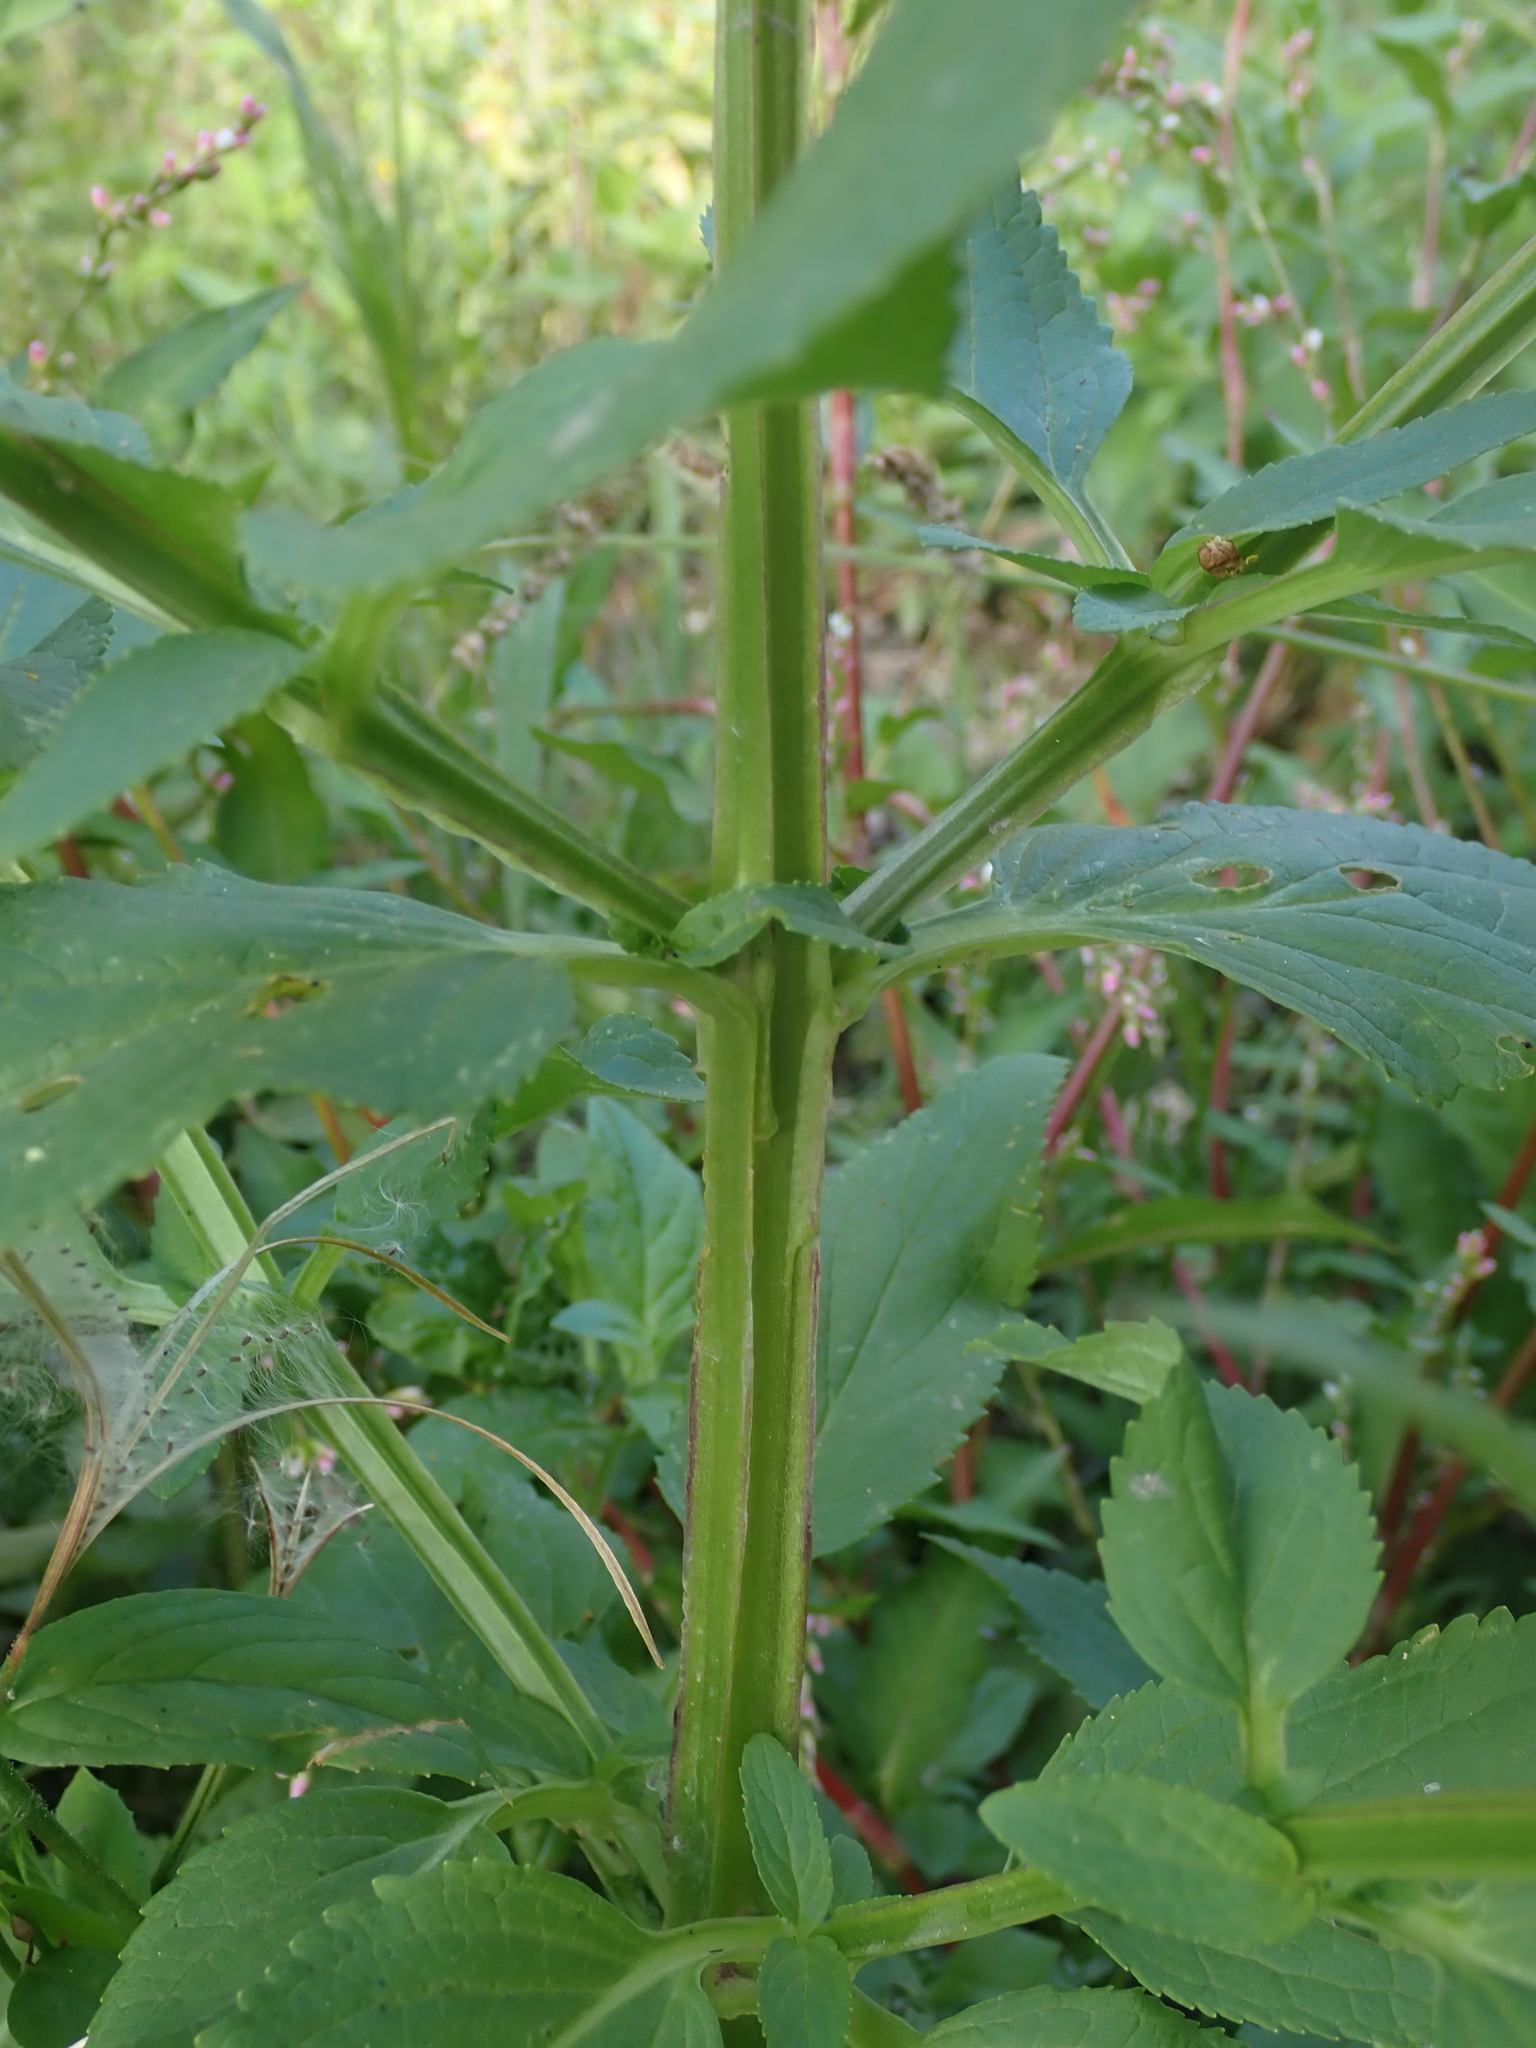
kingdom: Plantae
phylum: Tracheophyta
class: Magnoliopsida
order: Lamiales
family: Scrophulariaceae
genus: Scrophularia
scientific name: Scrophularia umbrosa
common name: Green figwort
